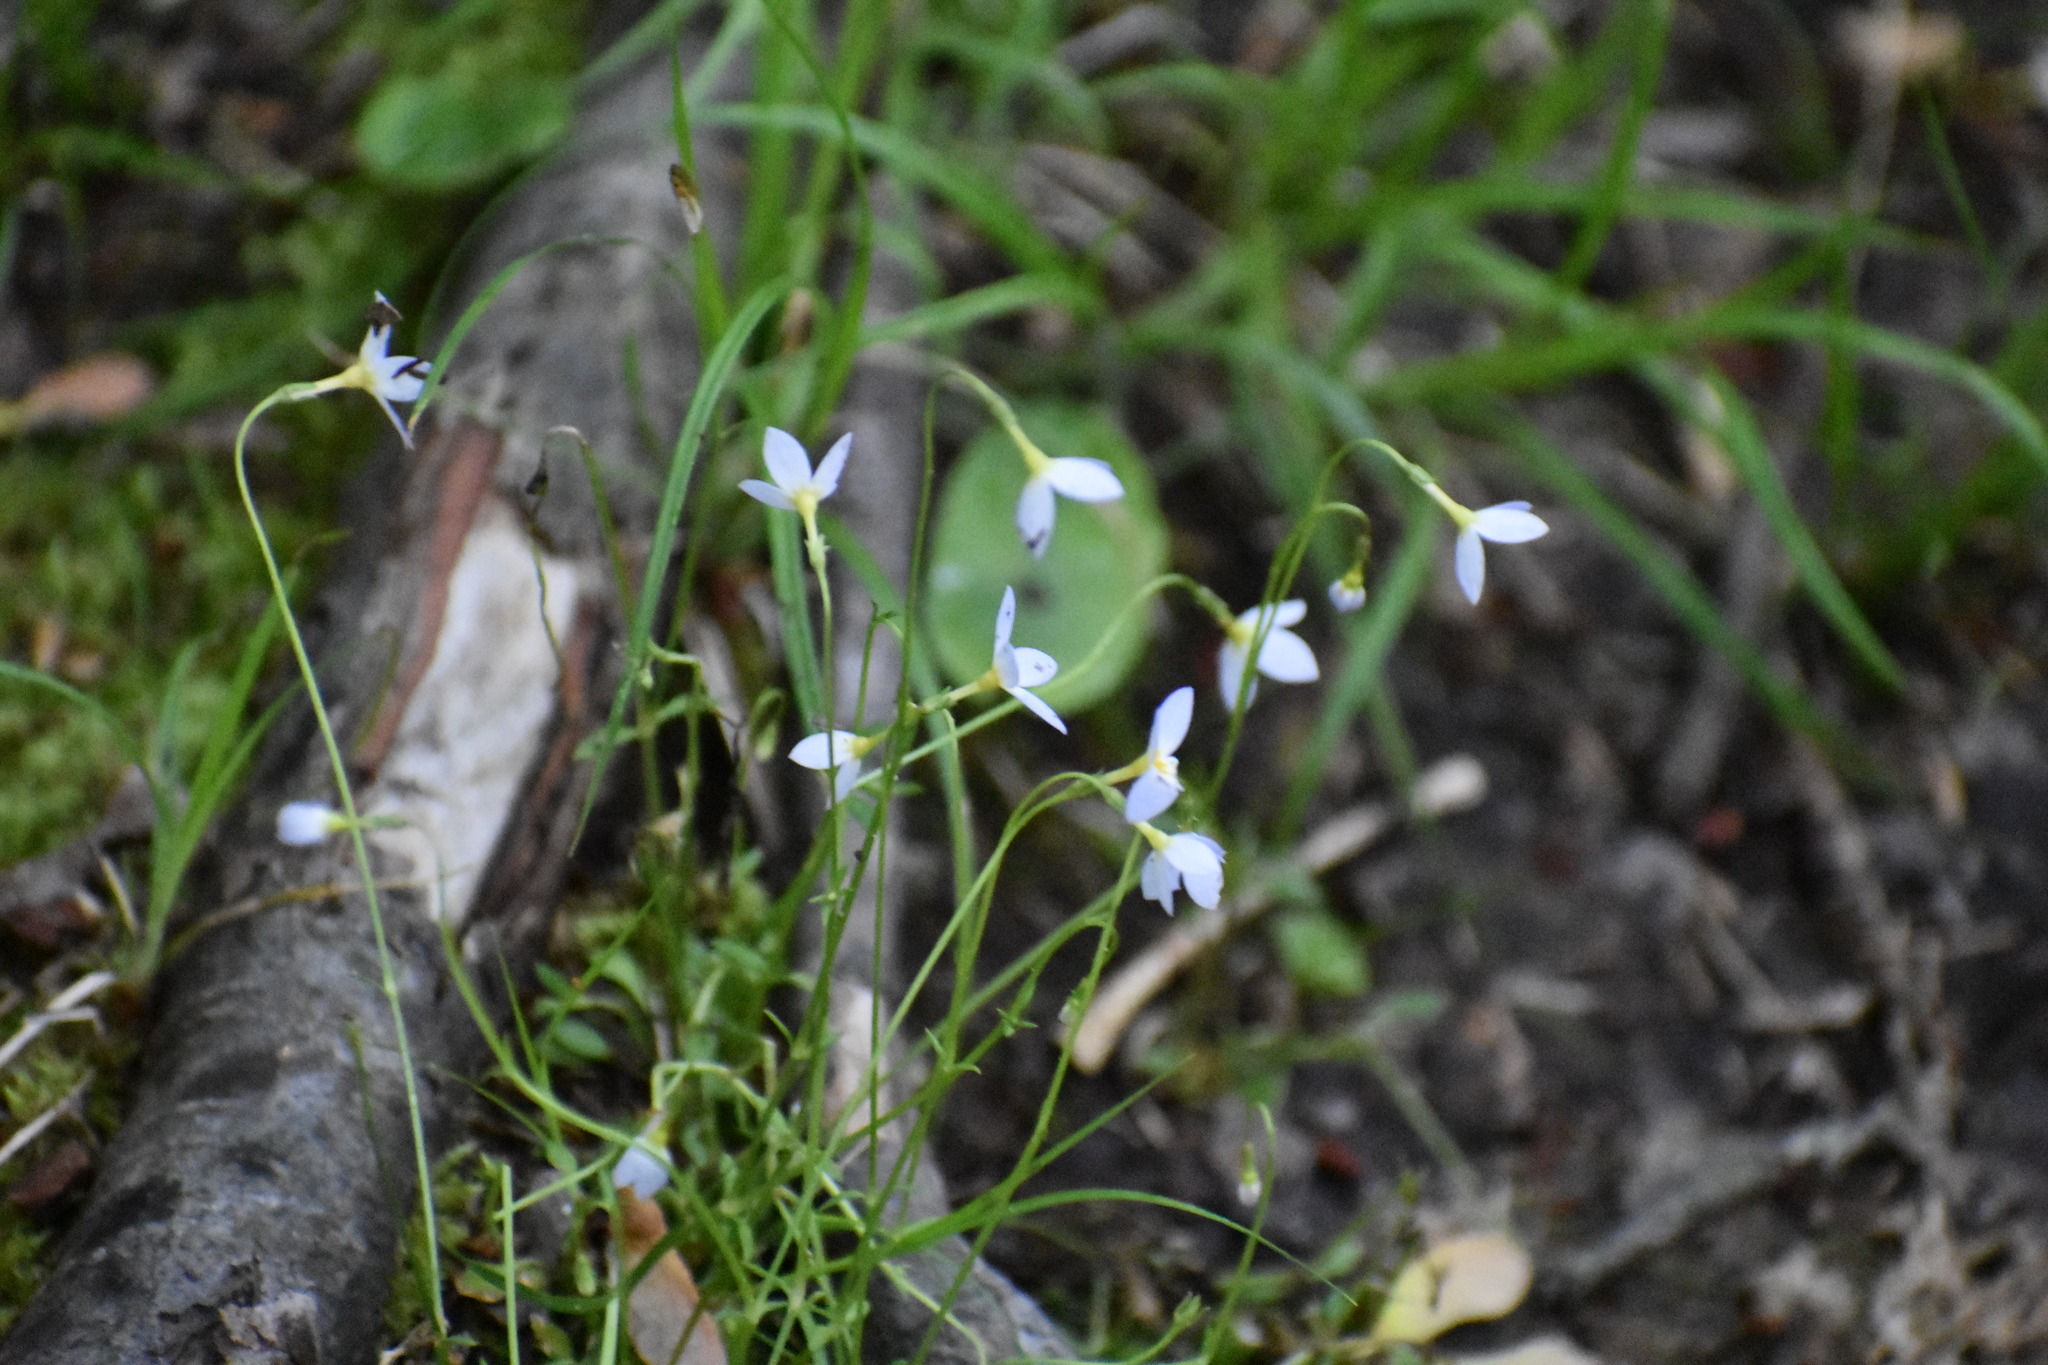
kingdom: Plantae
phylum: Tracheophyta
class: Magnoliopsida
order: Gentianales
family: Rubiaceae
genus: Houstonia
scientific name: Houstonia caerulea
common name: Bluets
